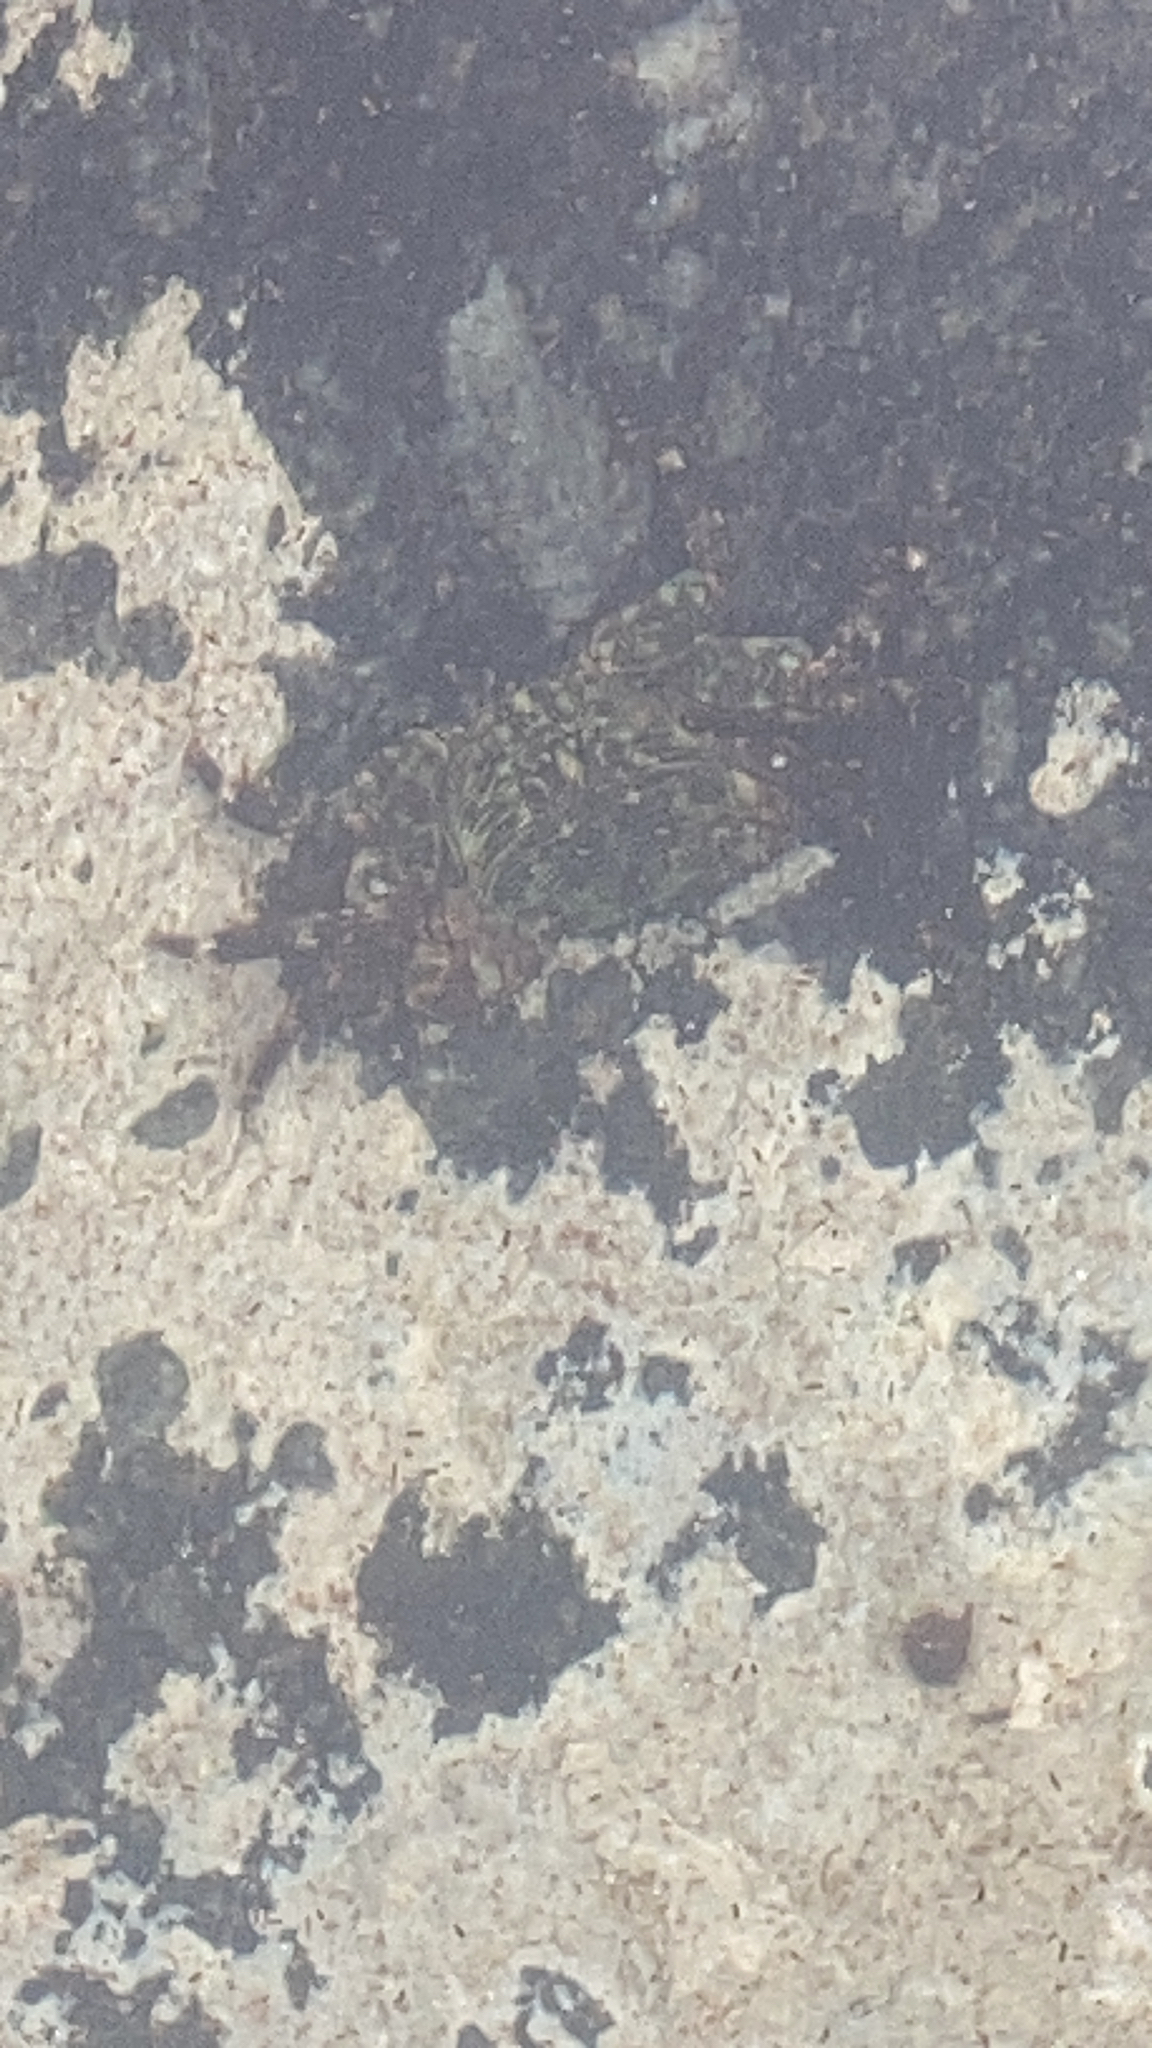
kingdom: Animalia
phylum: Arthropoda
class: Malacostraca
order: Decapoda
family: Grapsidae
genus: Pachygrapsus
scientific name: Pachygrapsus crassipes
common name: Striped shore crab
